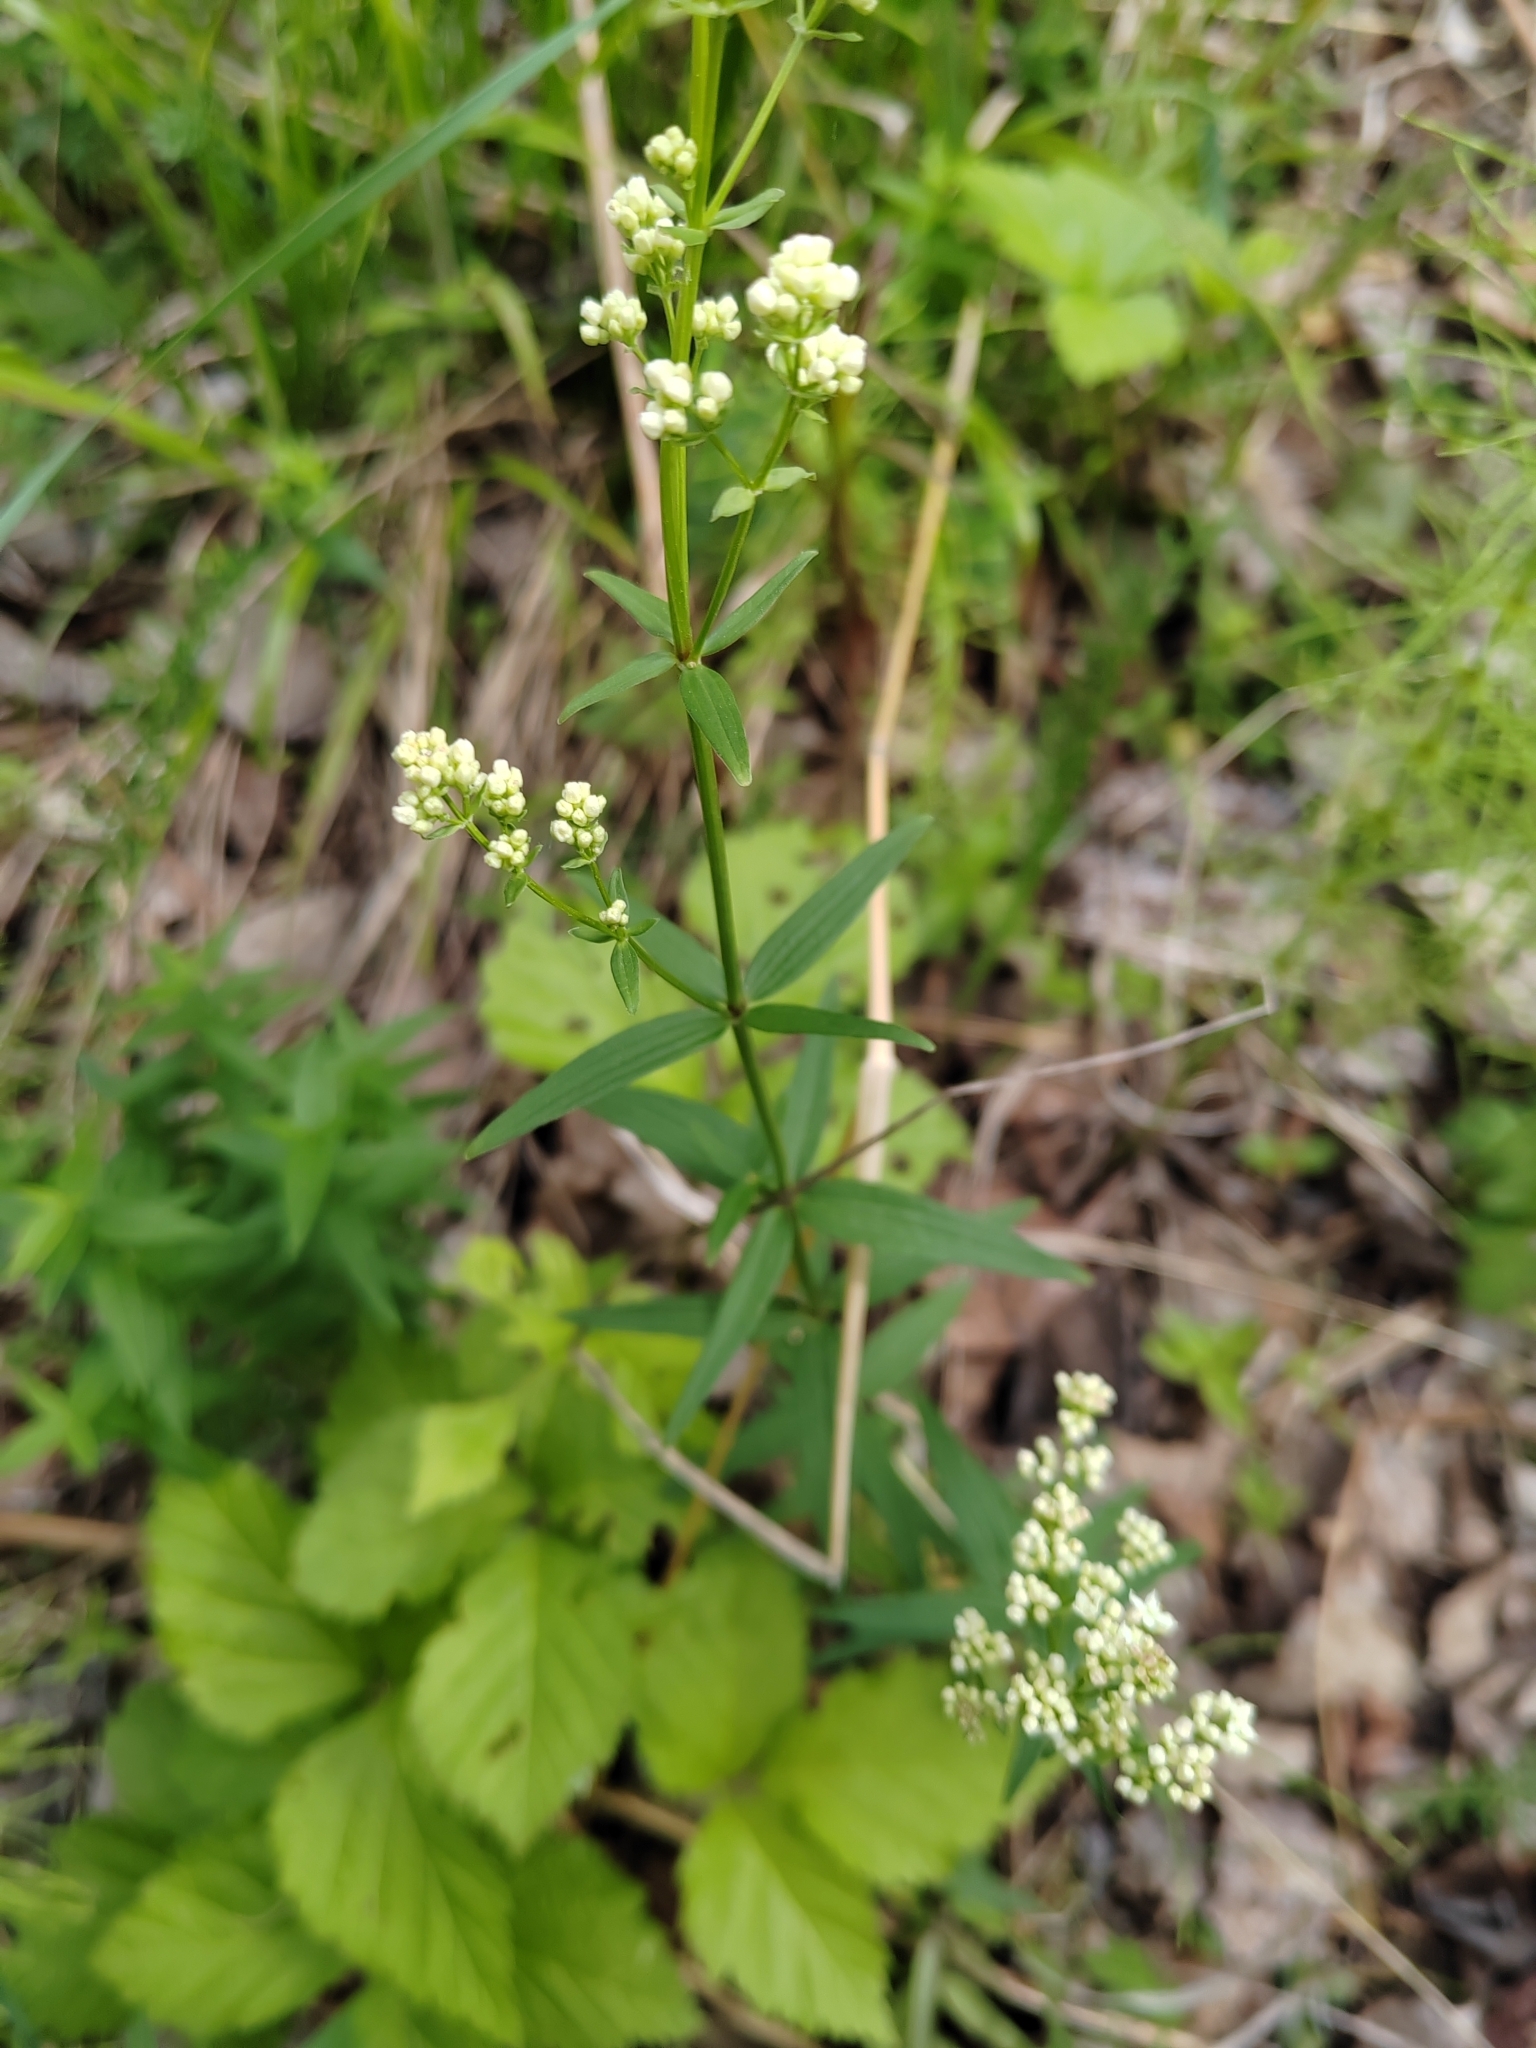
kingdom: Plantae
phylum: Tracheophyta
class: Magnoliopsida
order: Gentianales
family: Rubiaceae
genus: Galium
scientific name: Galium boreale
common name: Northern bedstraw
